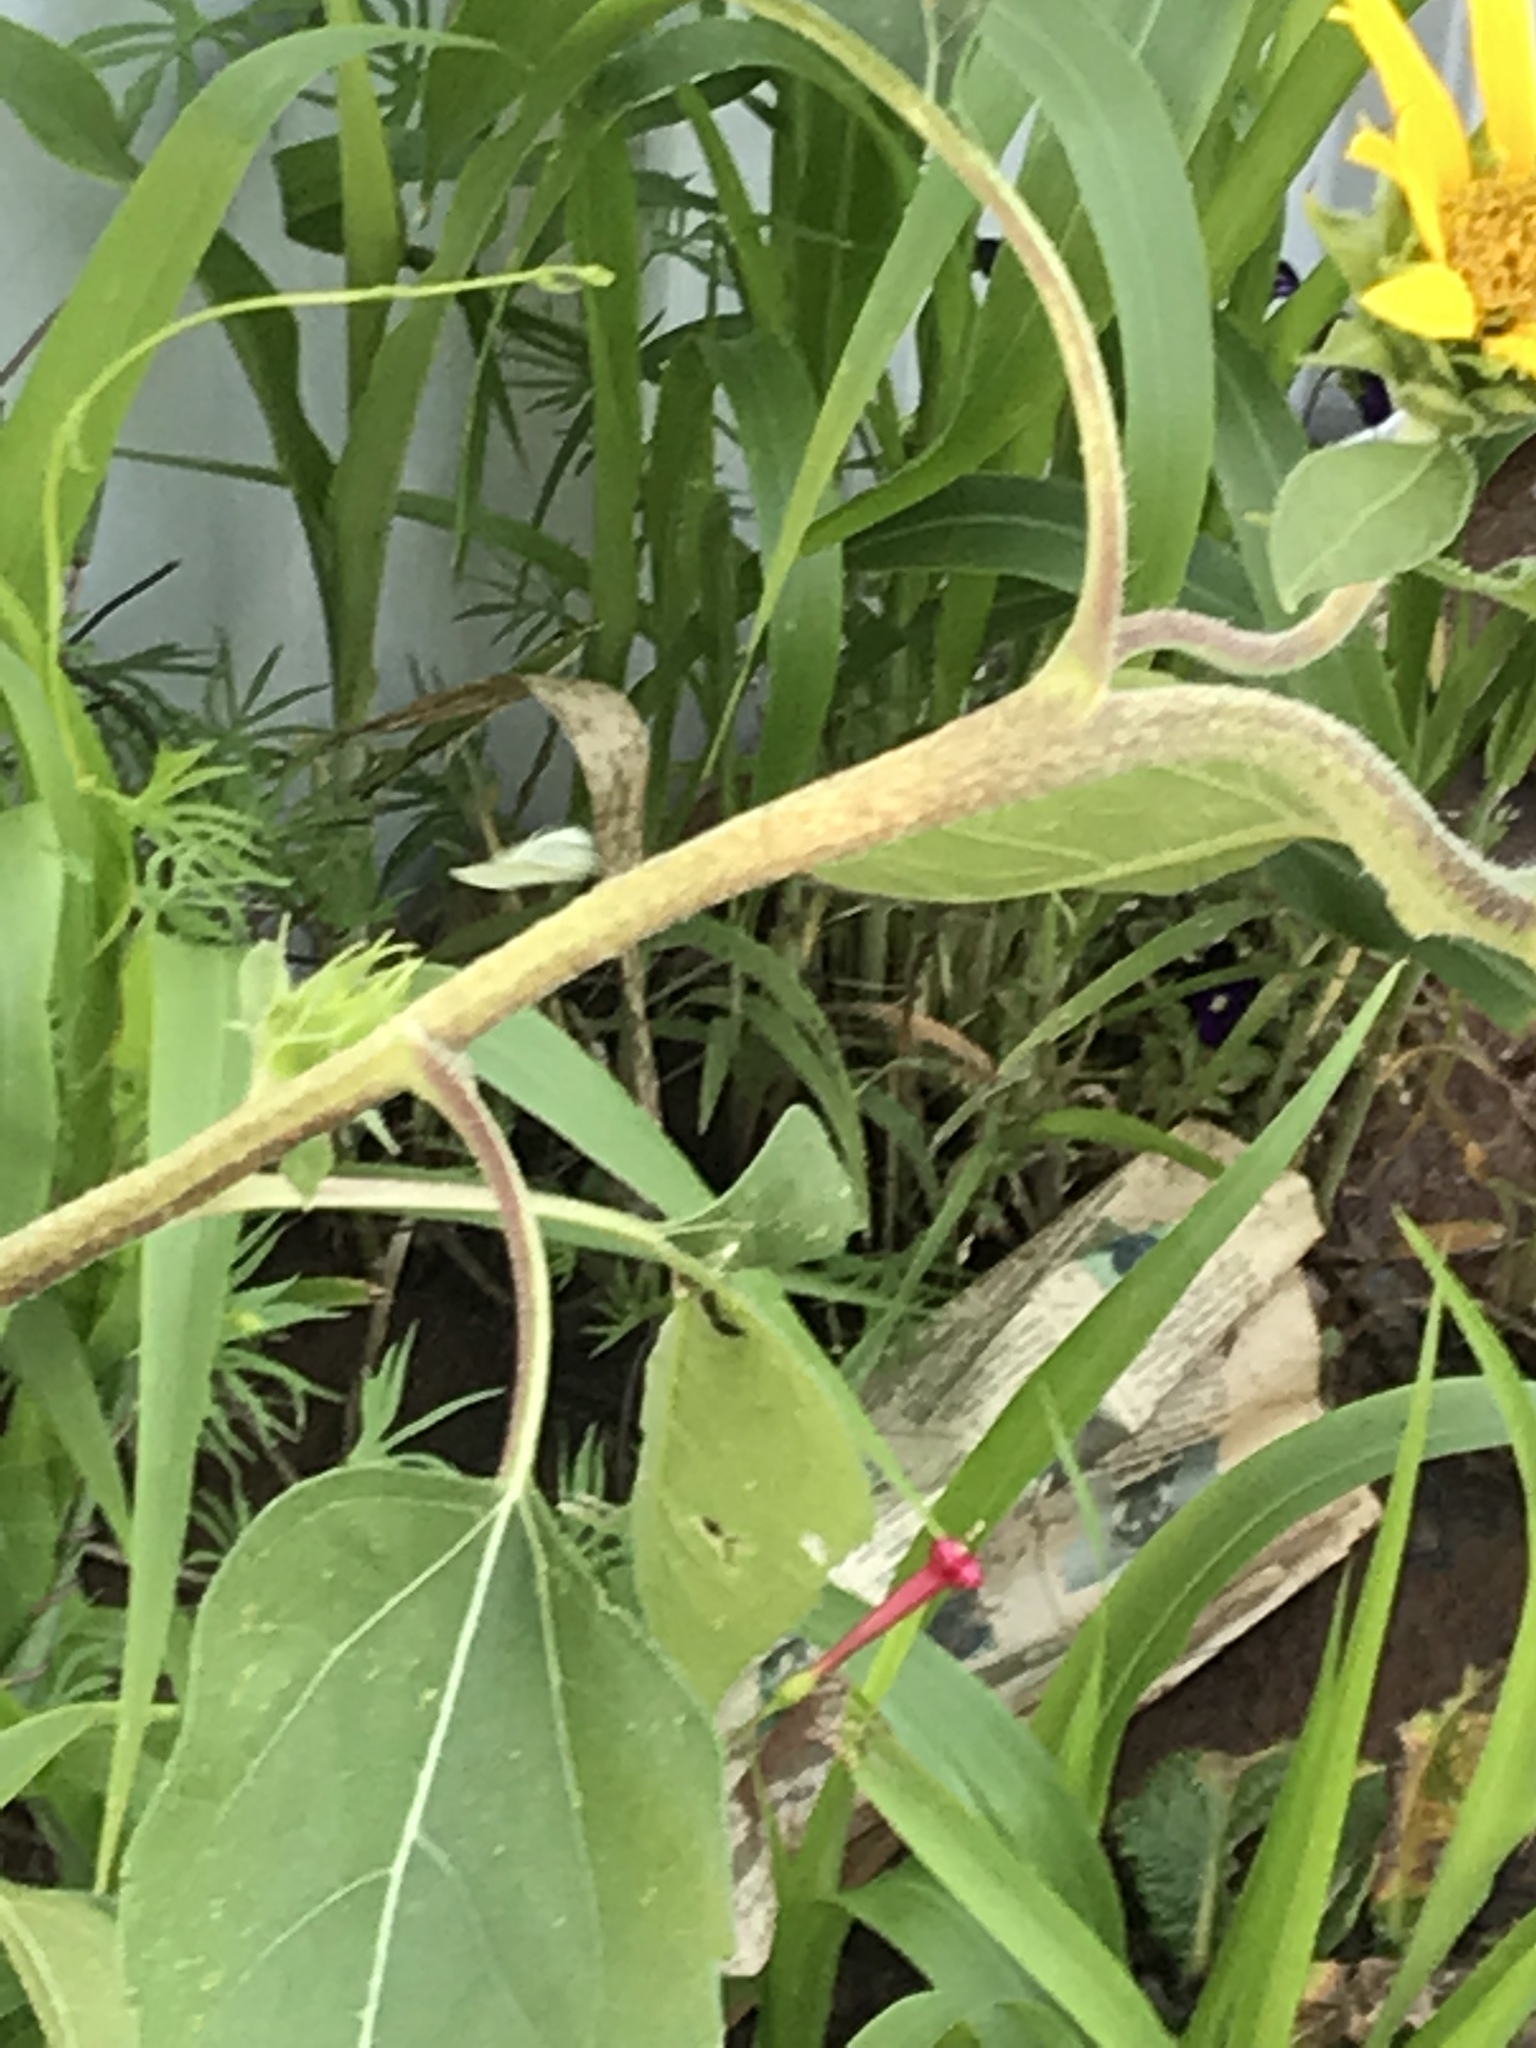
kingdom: Animalia
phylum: Arthropoda
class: Insecta
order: Lepidoptera
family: Pieridae
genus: Pieris
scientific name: Pieris rapae
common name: Small white
